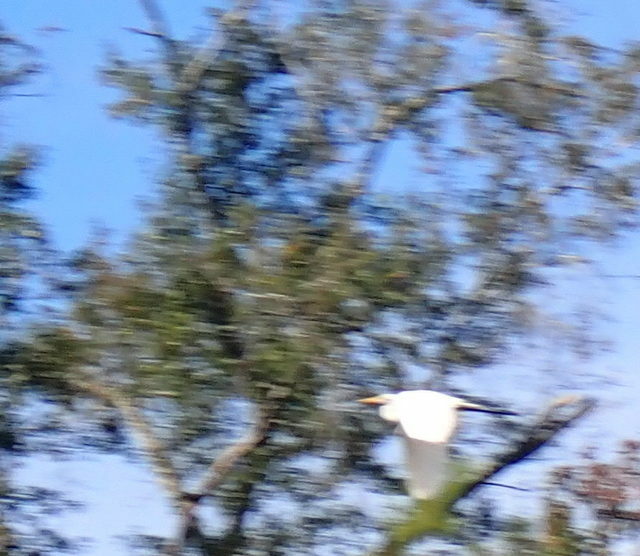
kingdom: Animalia
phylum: Chordata
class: Aves
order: Pelecaniformes
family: Ardeidae
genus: Ardea
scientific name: Ardea alba
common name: Great egret
